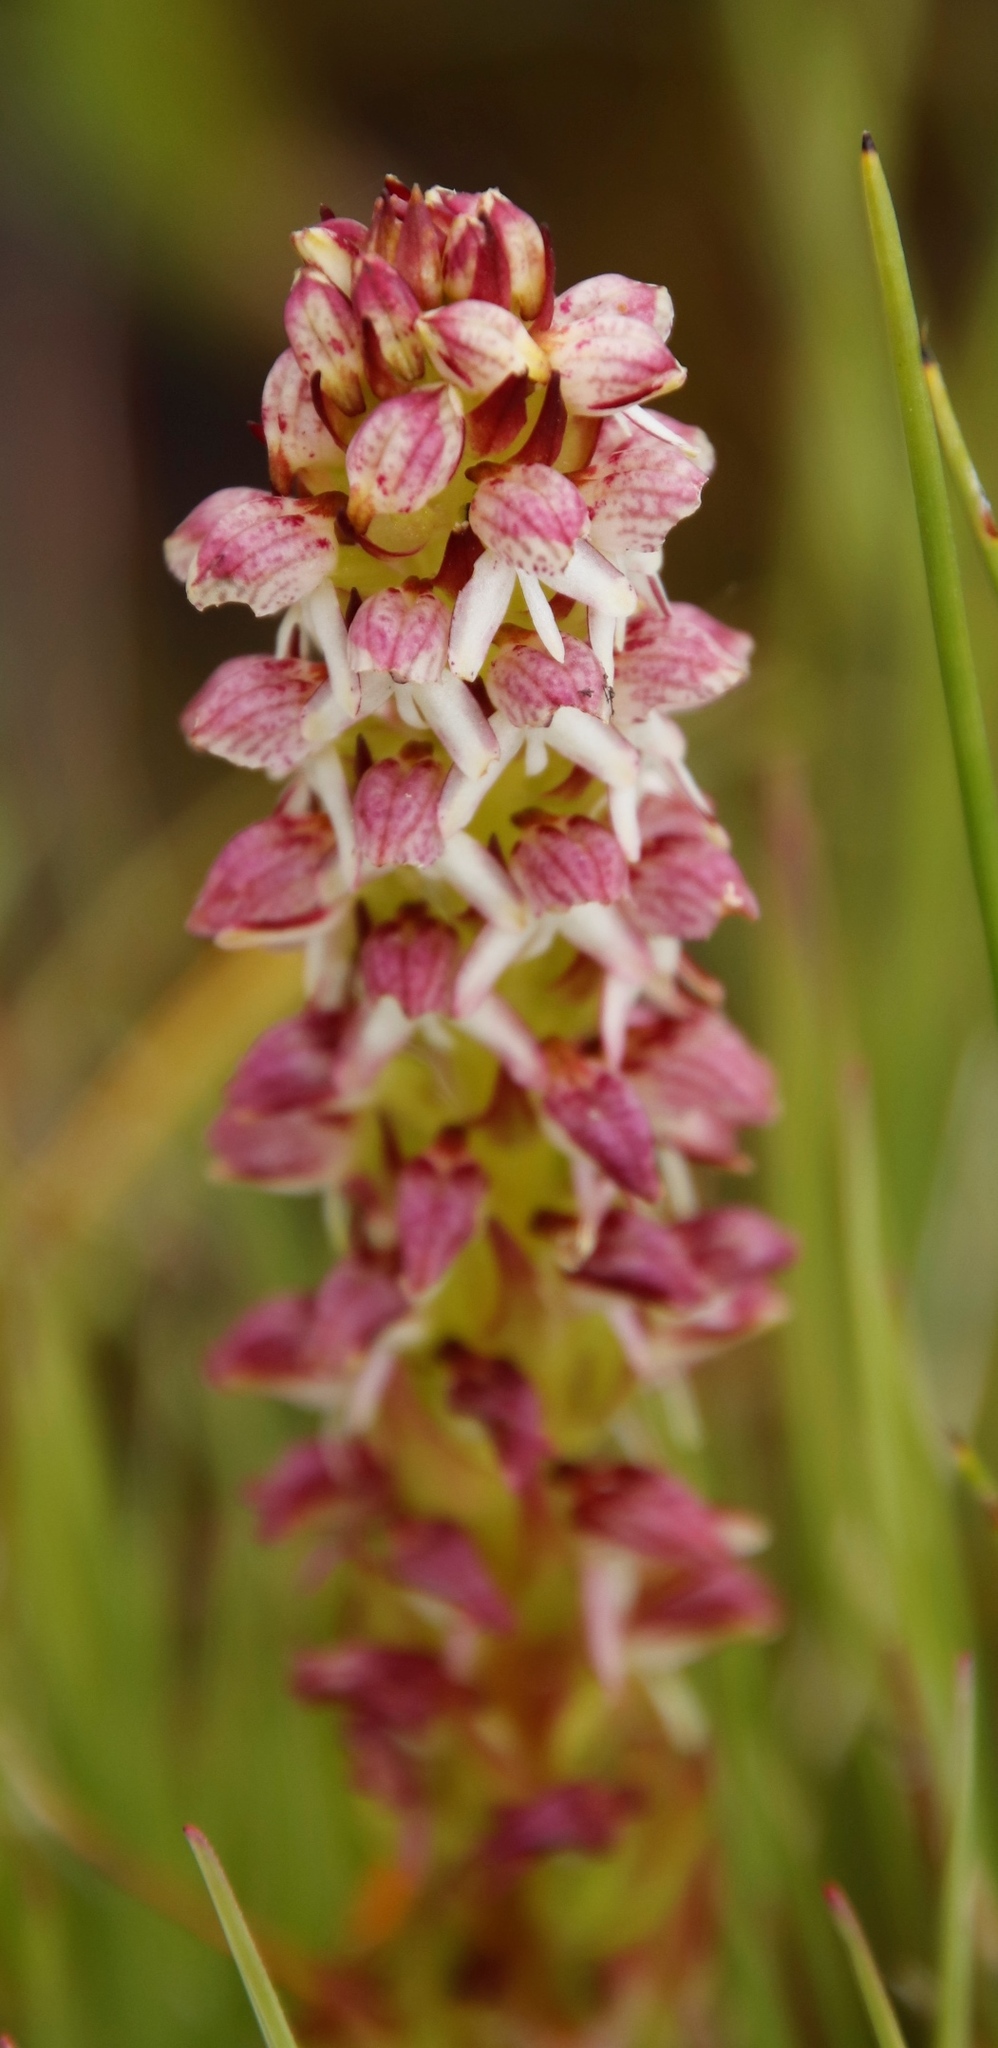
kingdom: Plantae
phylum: Tracheophyta
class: Liliopsida
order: Asparagales
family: Orchidaceae
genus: Disa
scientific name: Disa
